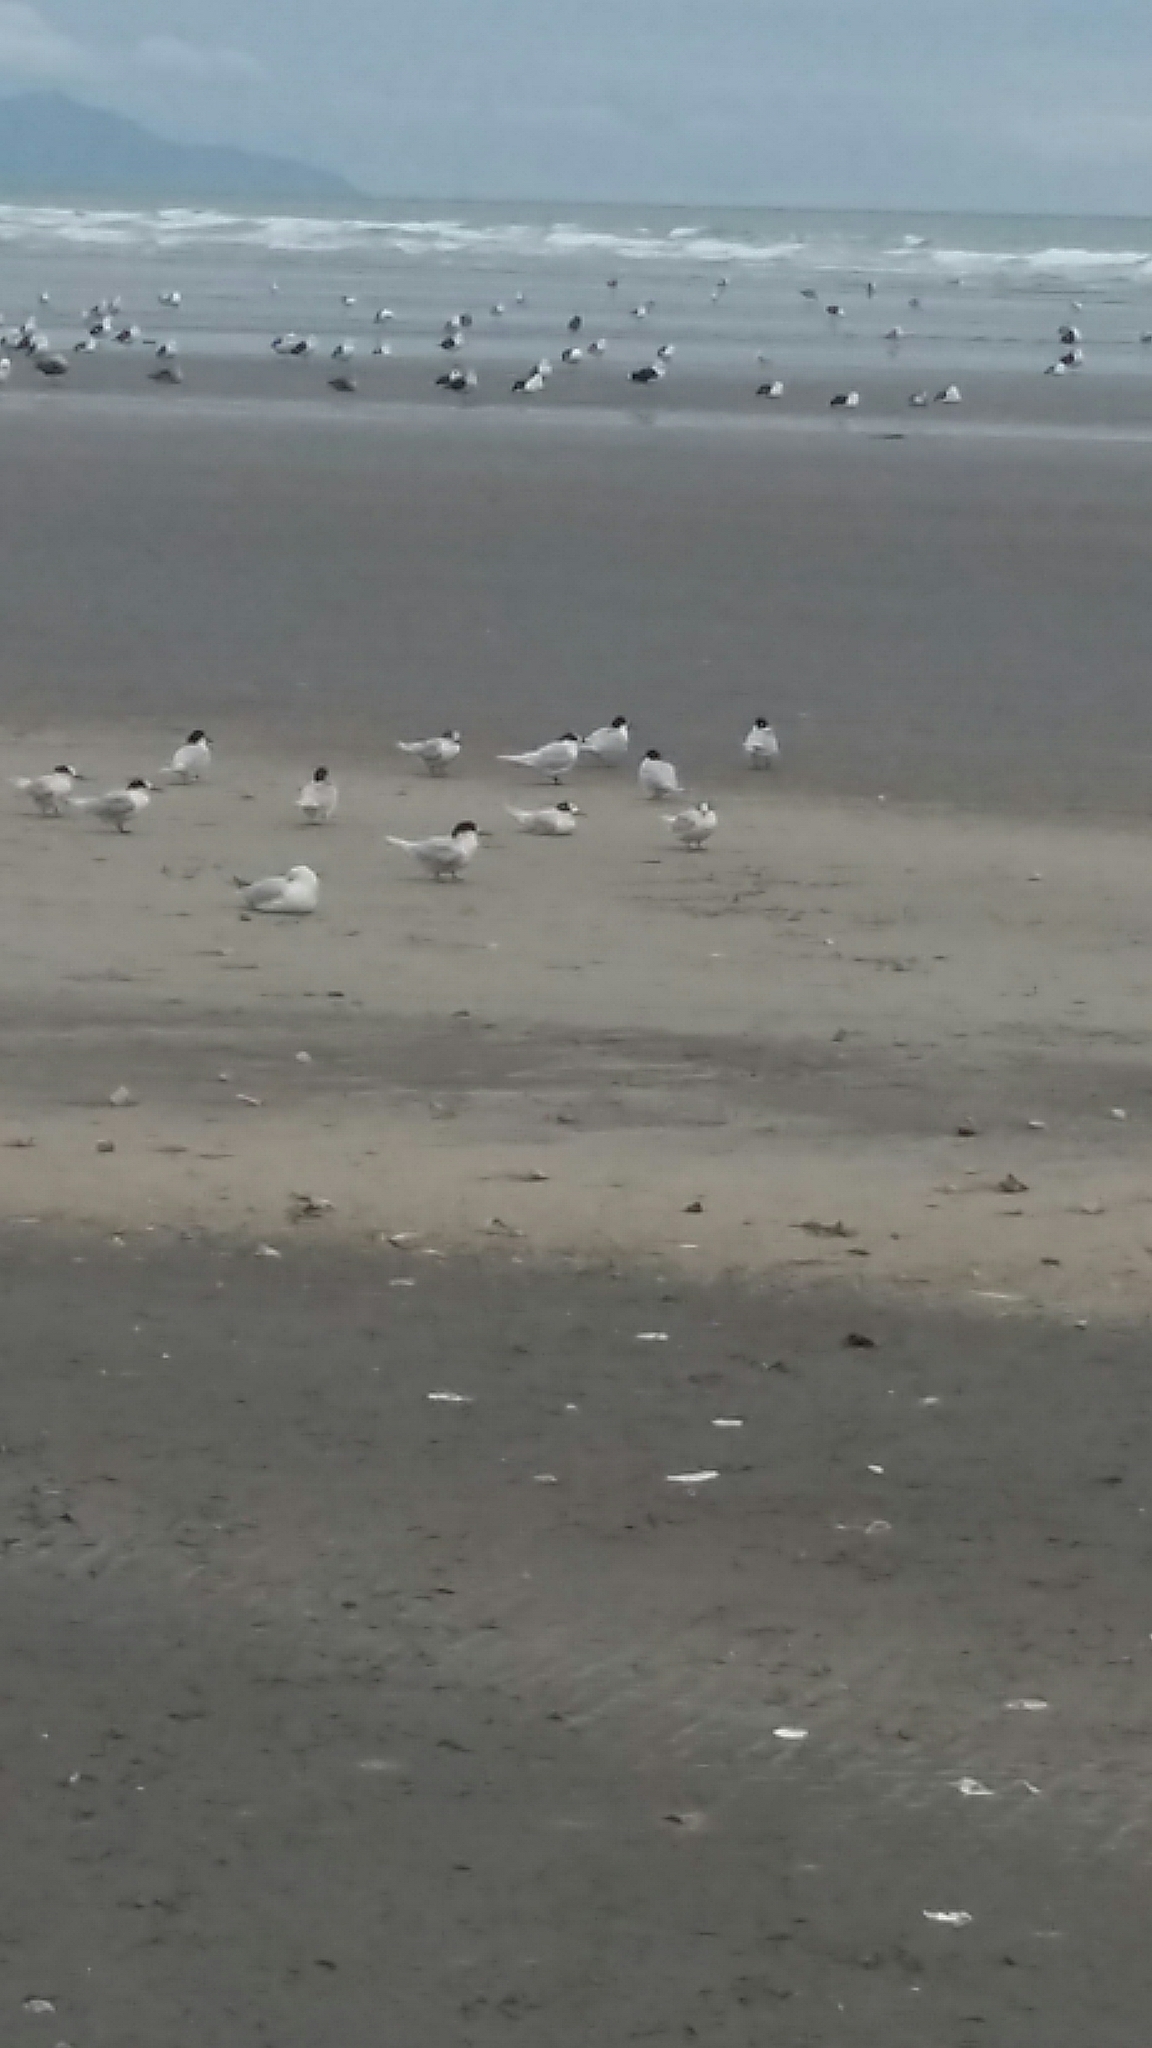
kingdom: Animalia
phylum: Chordata
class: Aves
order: Charadriiformes
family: Laridae
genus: Sterna
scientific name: Sterna striata
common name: White-fronted tern
